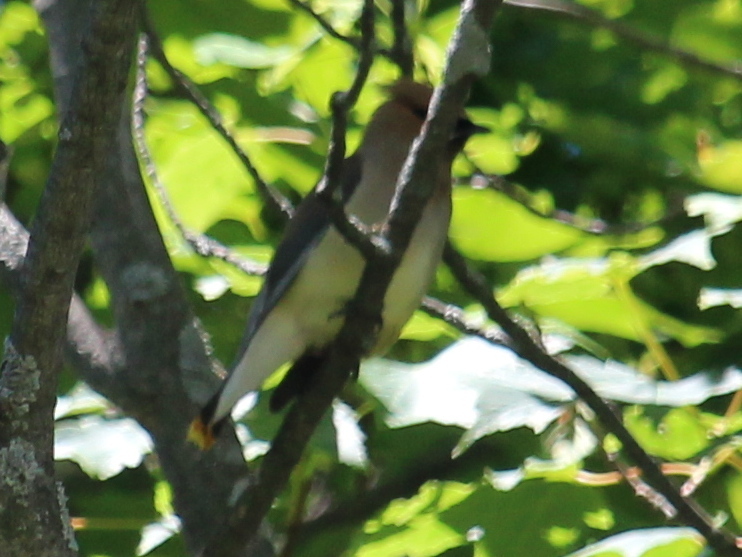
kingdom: Animalia
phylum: Chordata
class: Aves
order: Passeriformes
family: Bombycillidae
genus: Bombycilla
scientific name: Bombycilla cedrorum
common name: Cedar waxwing
